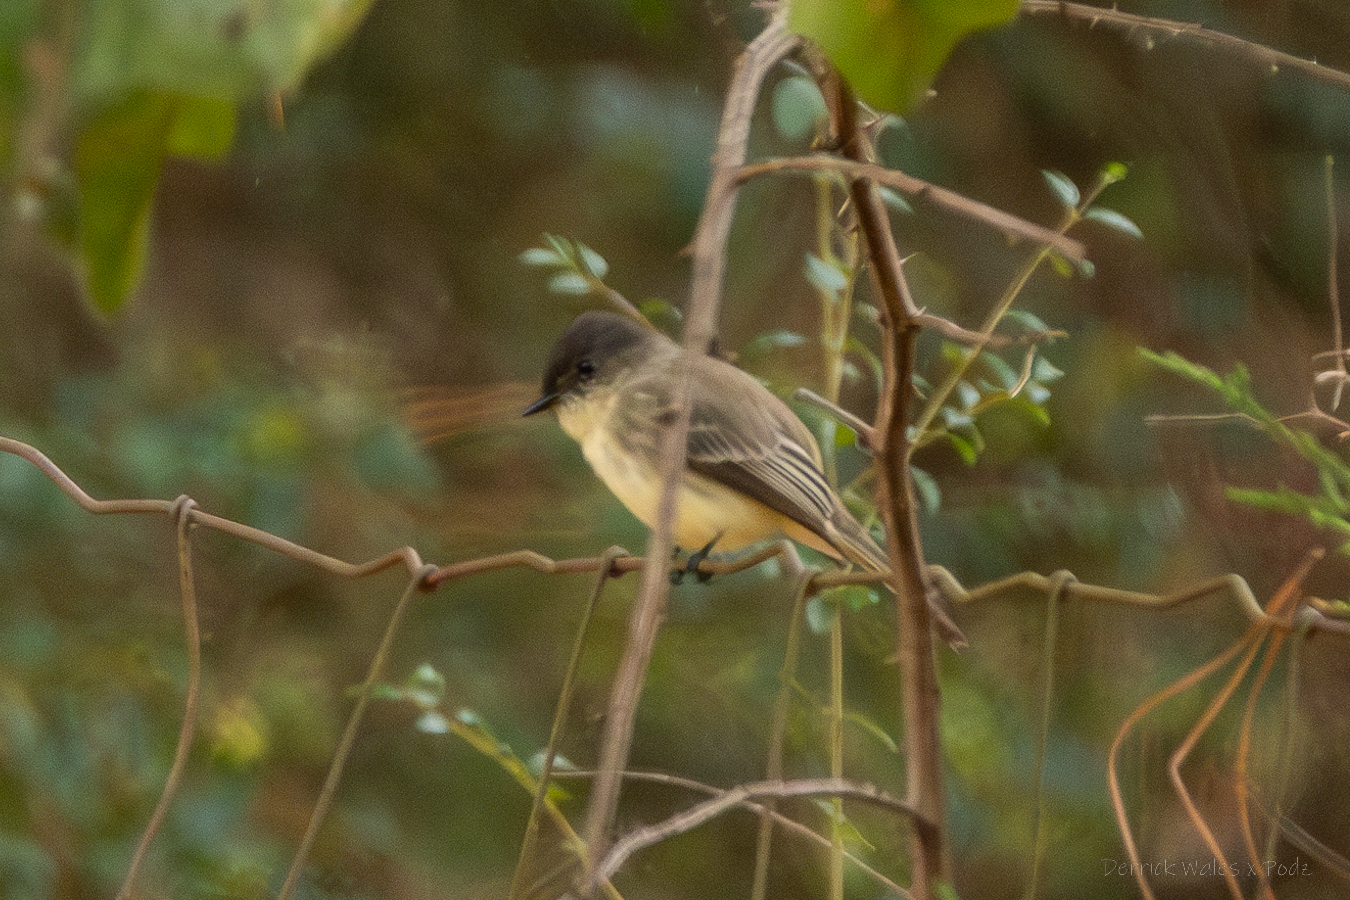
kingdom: Animalia
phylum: Chordata
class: Aves
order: Passeriformes
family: Tyrannidae
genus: Sayornis
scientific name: Sayornis phoebe
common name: Eastern phoebe
